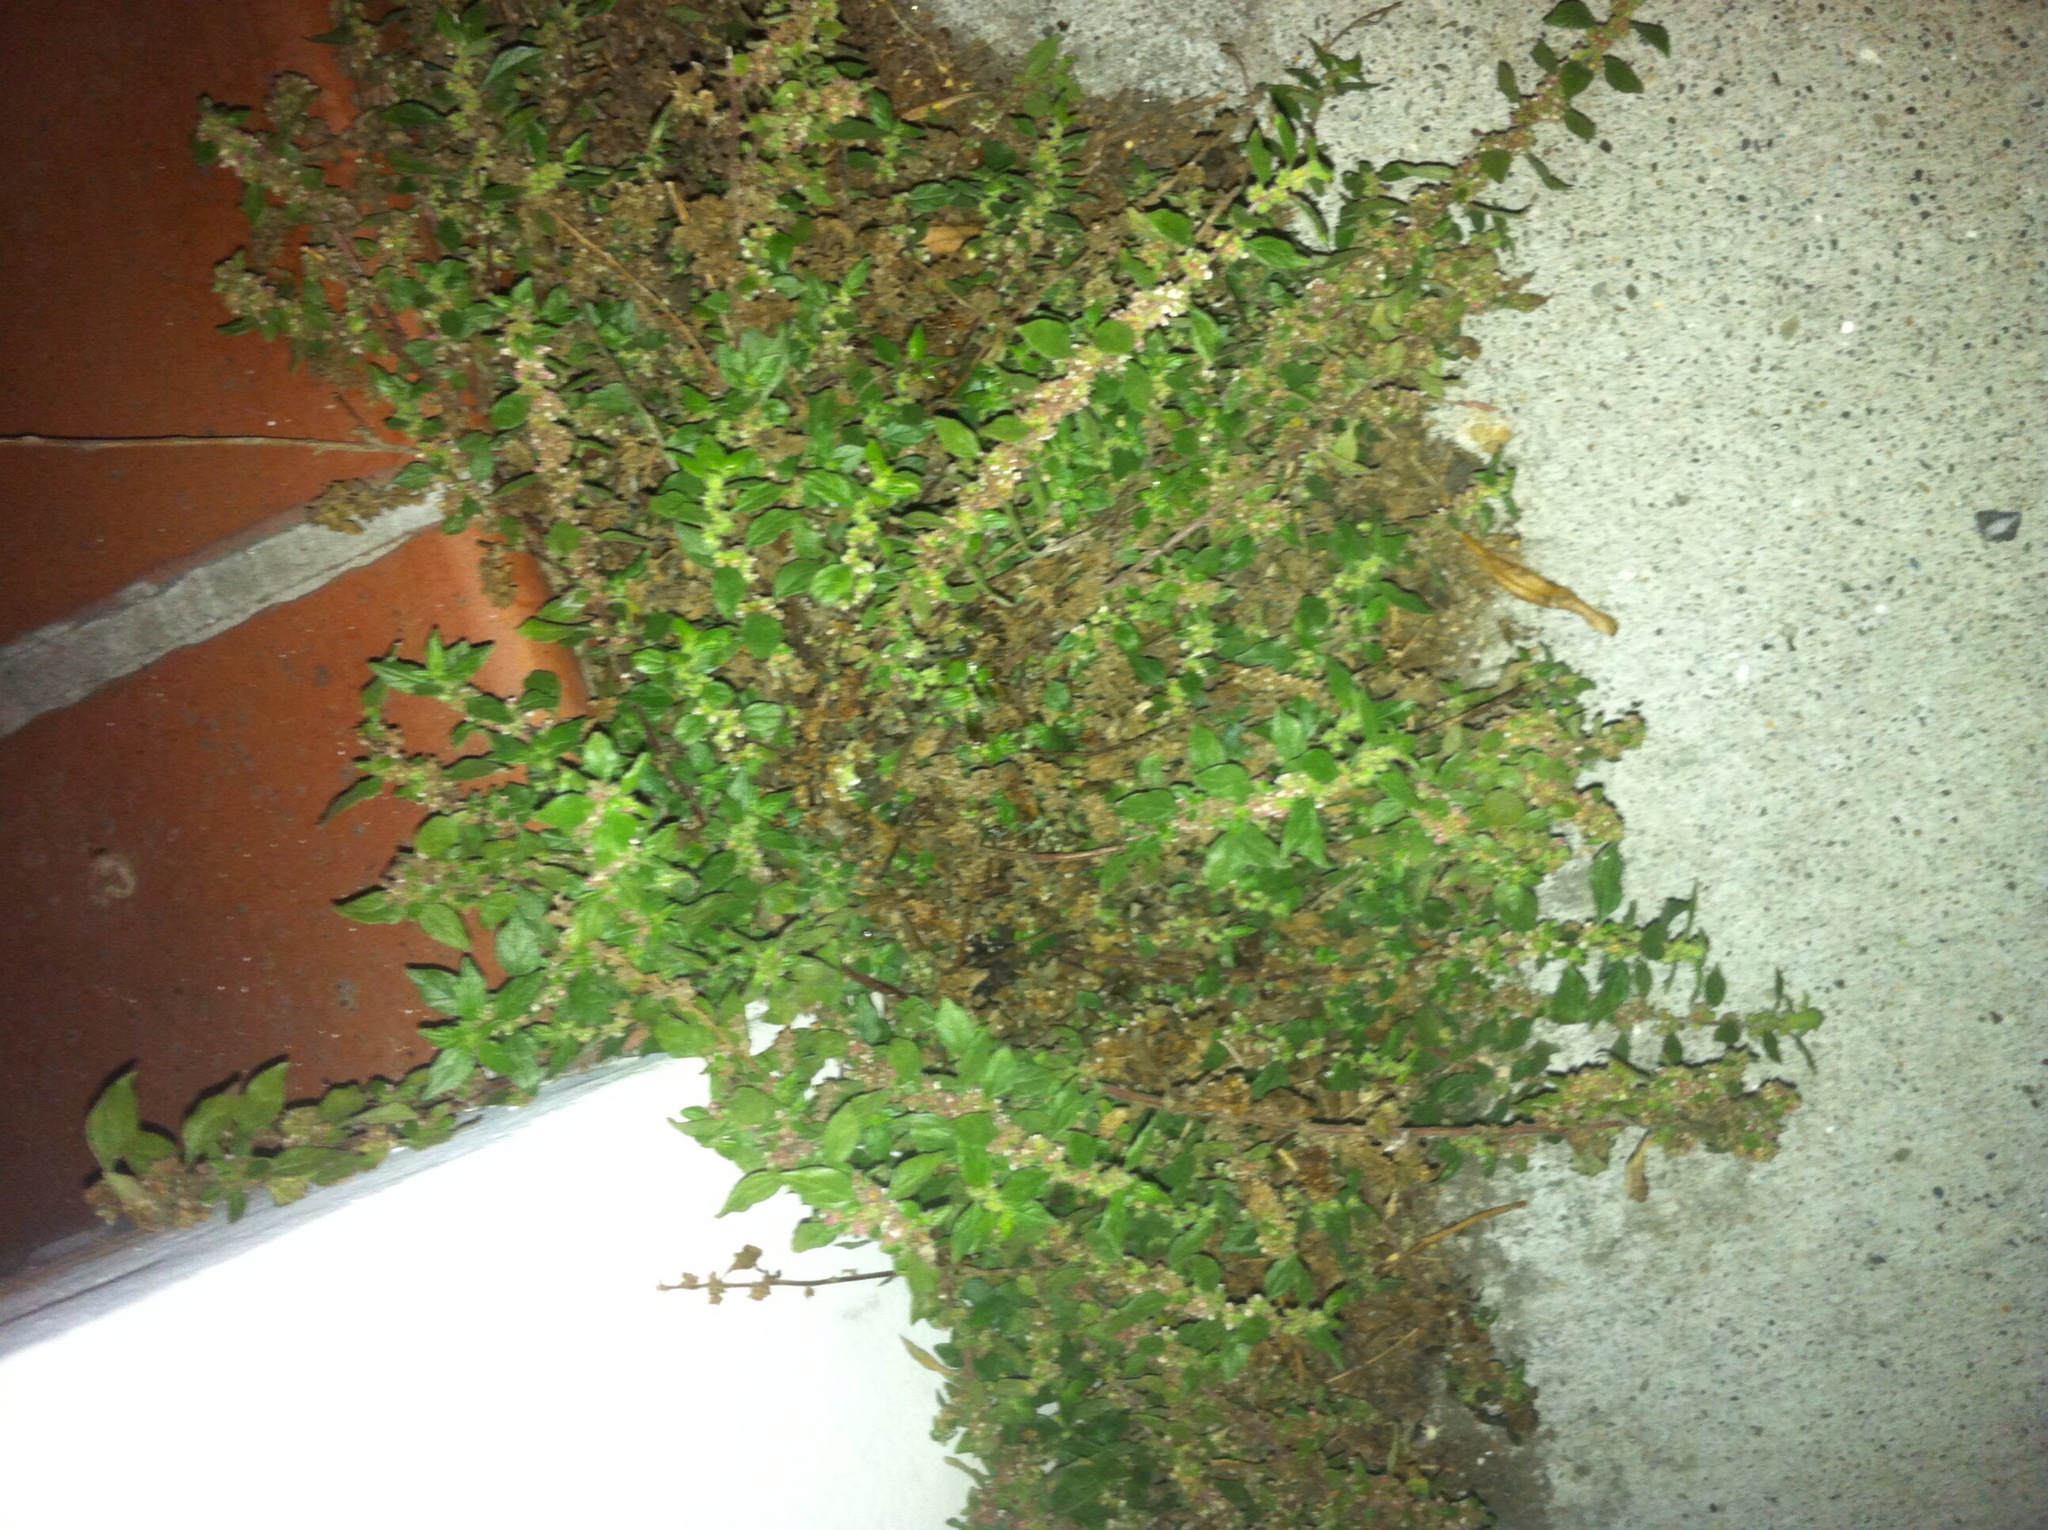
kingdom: Plantae
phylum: Tracheophyta
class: Magnoliopsida
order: Rosales
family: Urticaceae
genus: Parietaria
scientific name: Parietaria judaica
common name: Pellitory-of-the-wall
